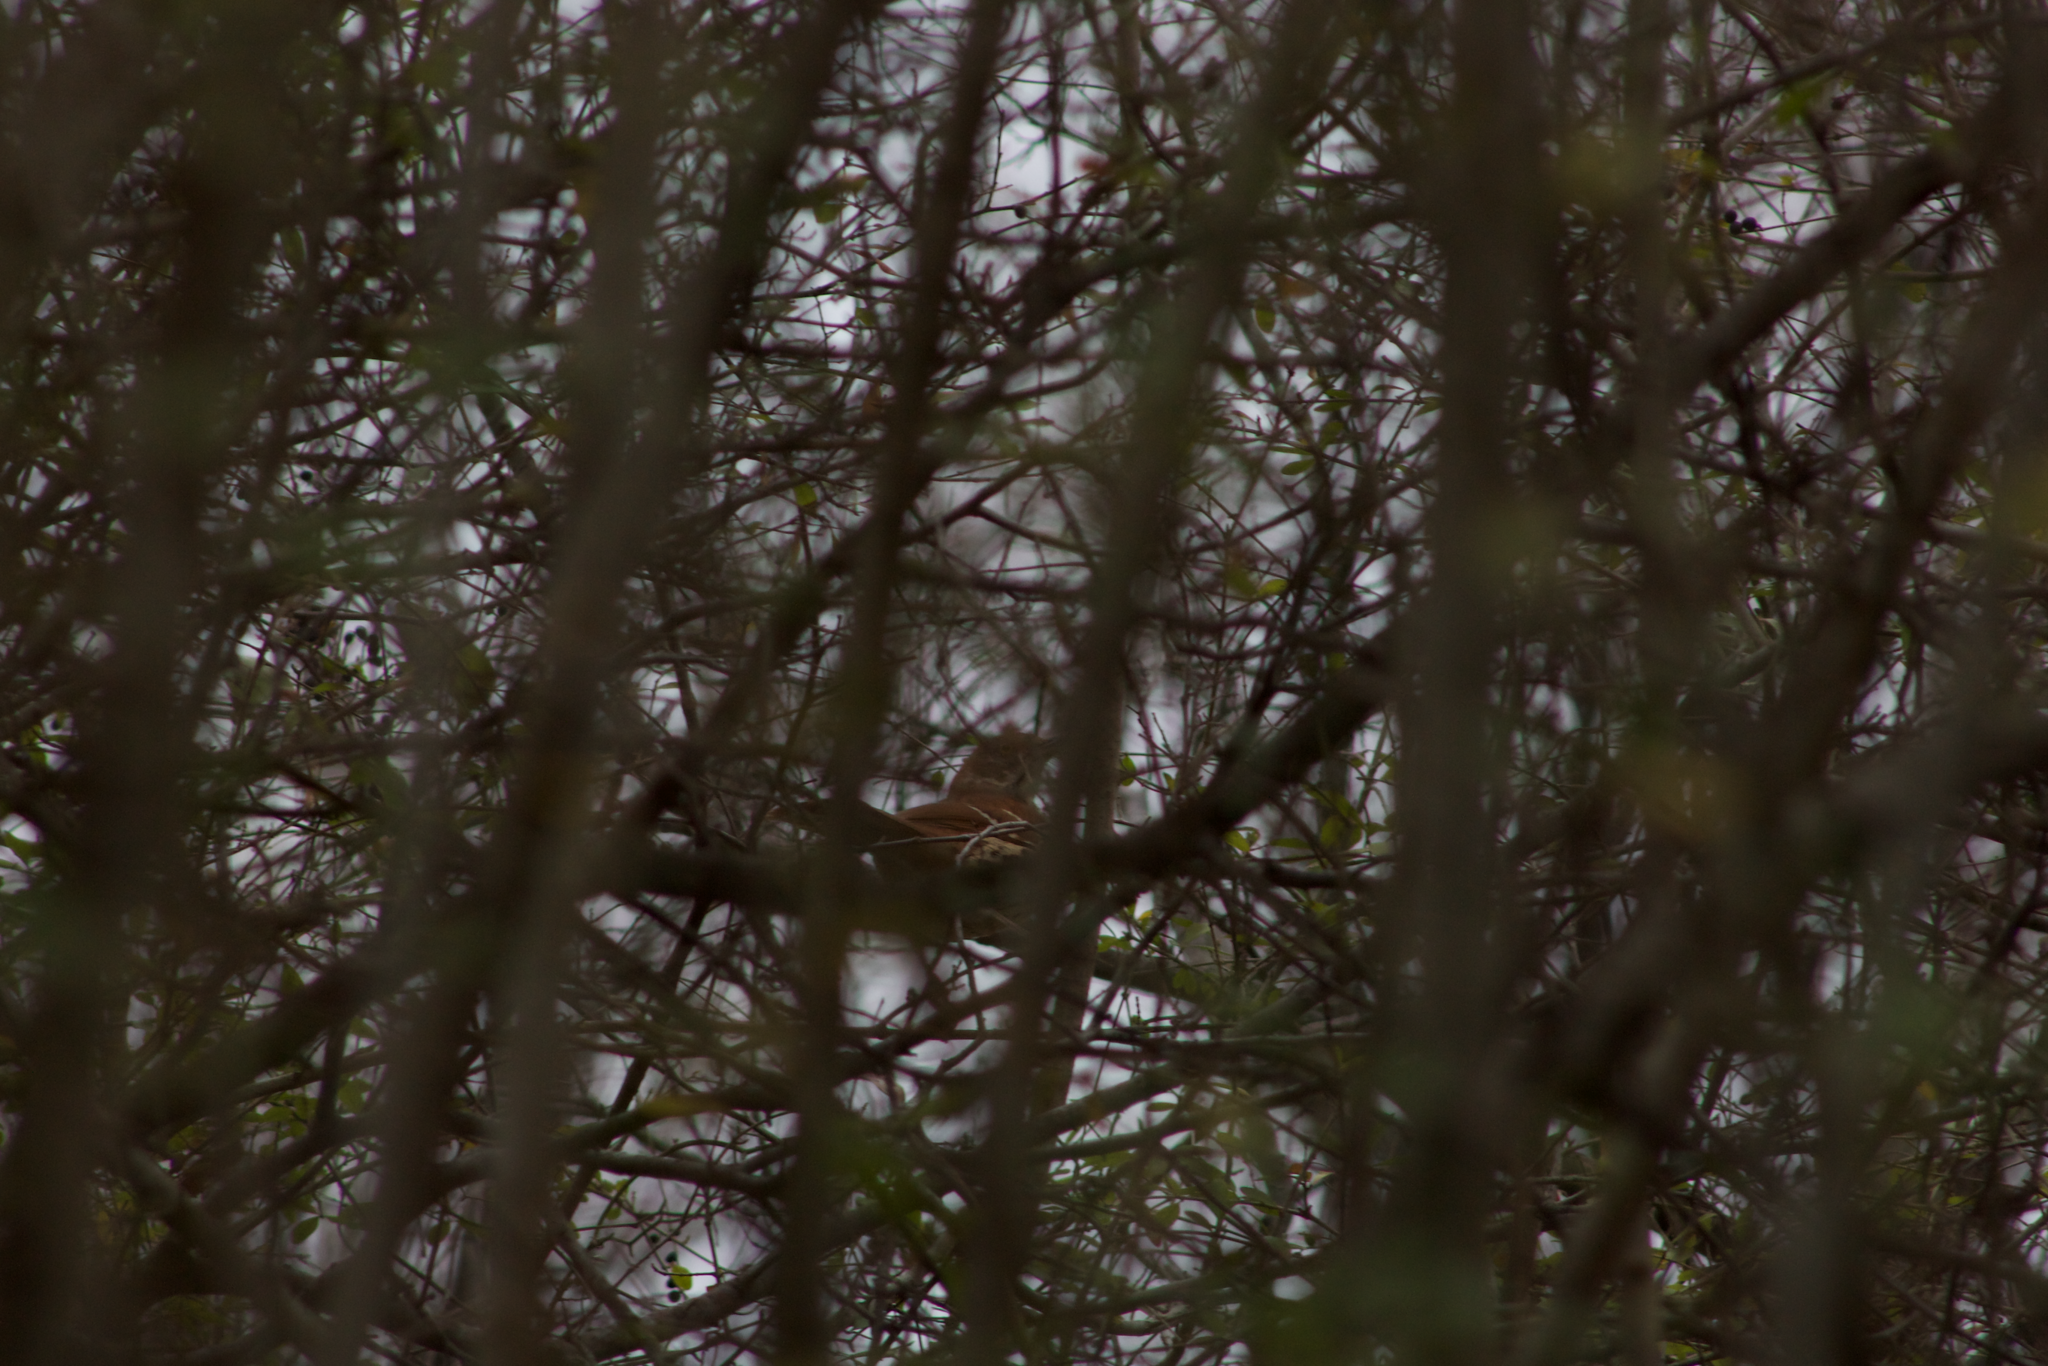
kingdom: Animalia
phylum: Chordata
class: Aves
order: Passeriformes
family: Mimidae
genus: Toxostoma
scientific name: Toxostoma rufum
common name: Brown thrasher
